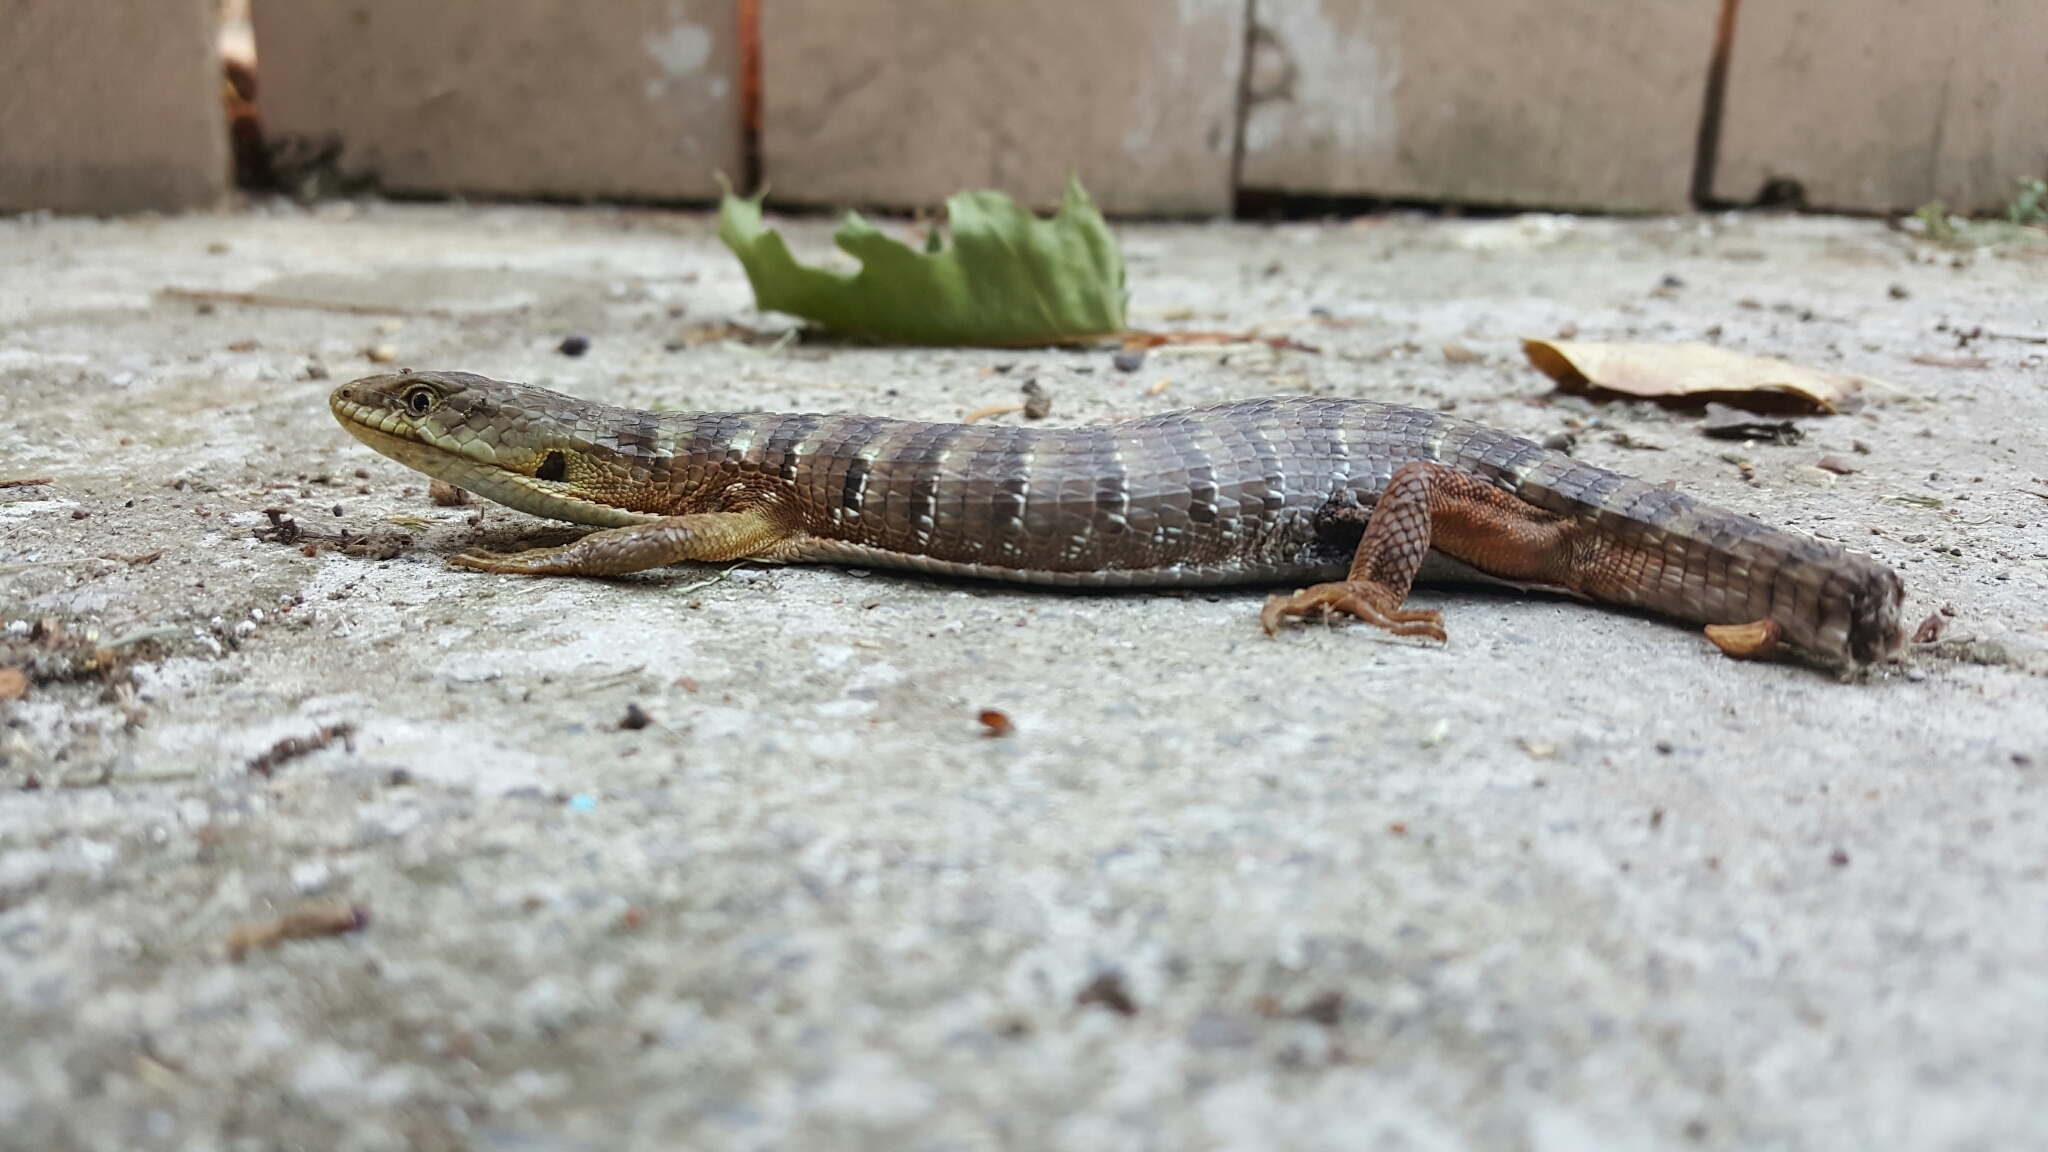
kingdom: Animalia
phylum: Chordata
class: Squamata
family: Anguidae
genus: Elgaria
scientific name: Elgaria multicarinata
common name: Southern alligator lizard
